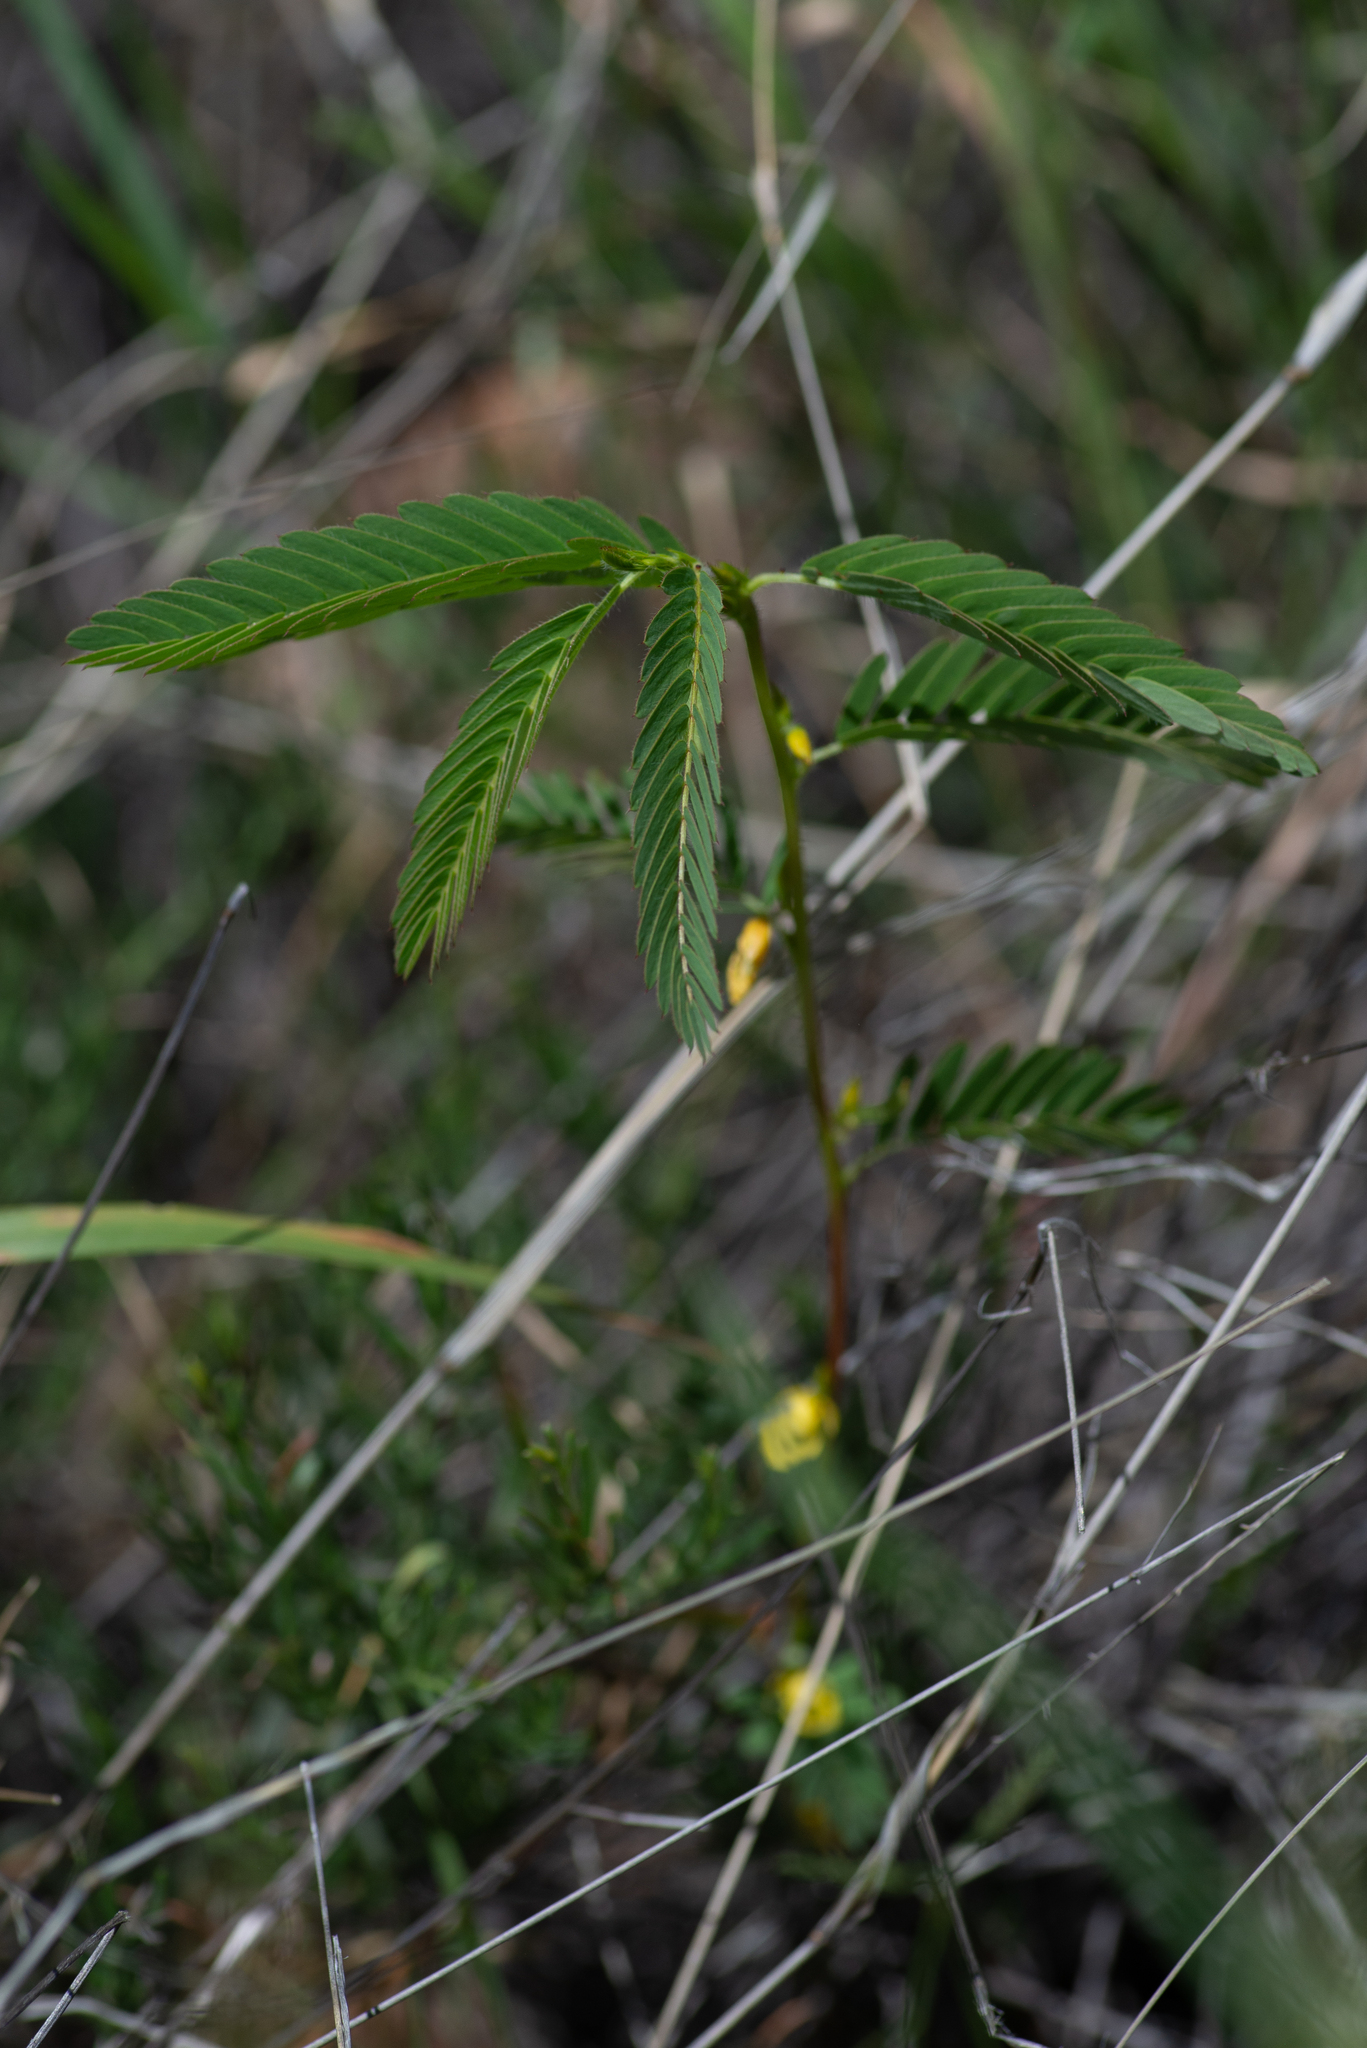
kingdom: Plantae
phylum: Tracheophyta
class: Magnoliopsida
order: Fabales
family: Fabaceae
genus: Chamaecrista
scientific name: Chamaecrista nictitans
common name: Sensitive cassia
